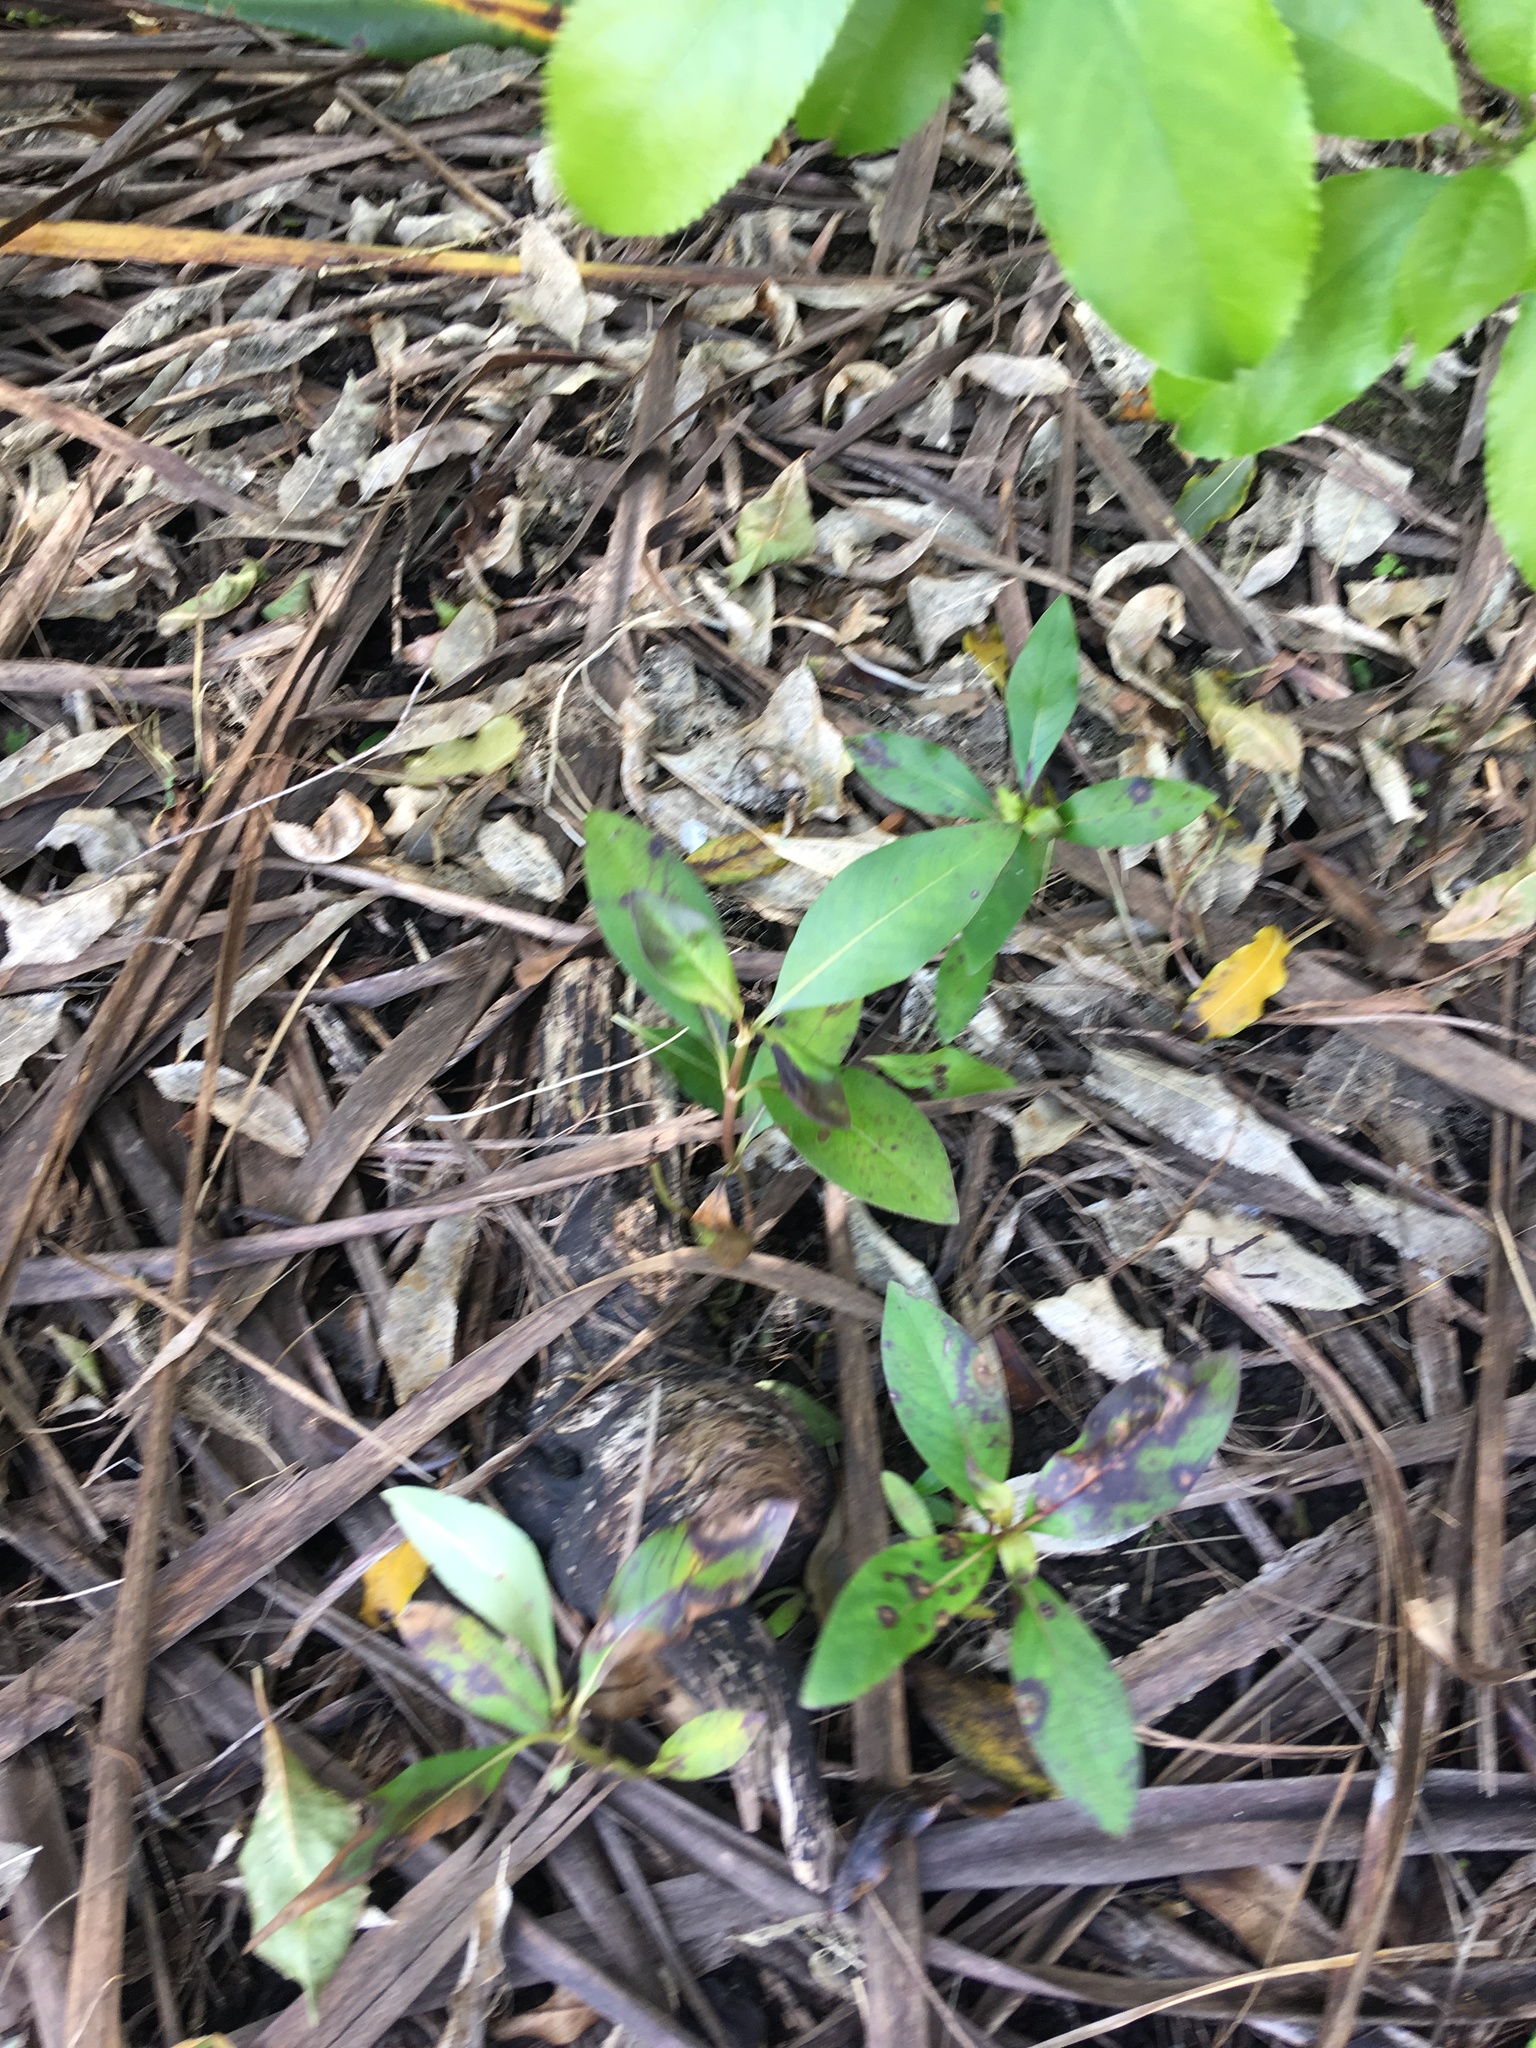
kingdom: Plantae
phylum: Tracheophyta
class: Magnoliopsida
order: Gentianales
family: Rubiaceae
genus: Coprosma
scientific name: Coprosma robusta
